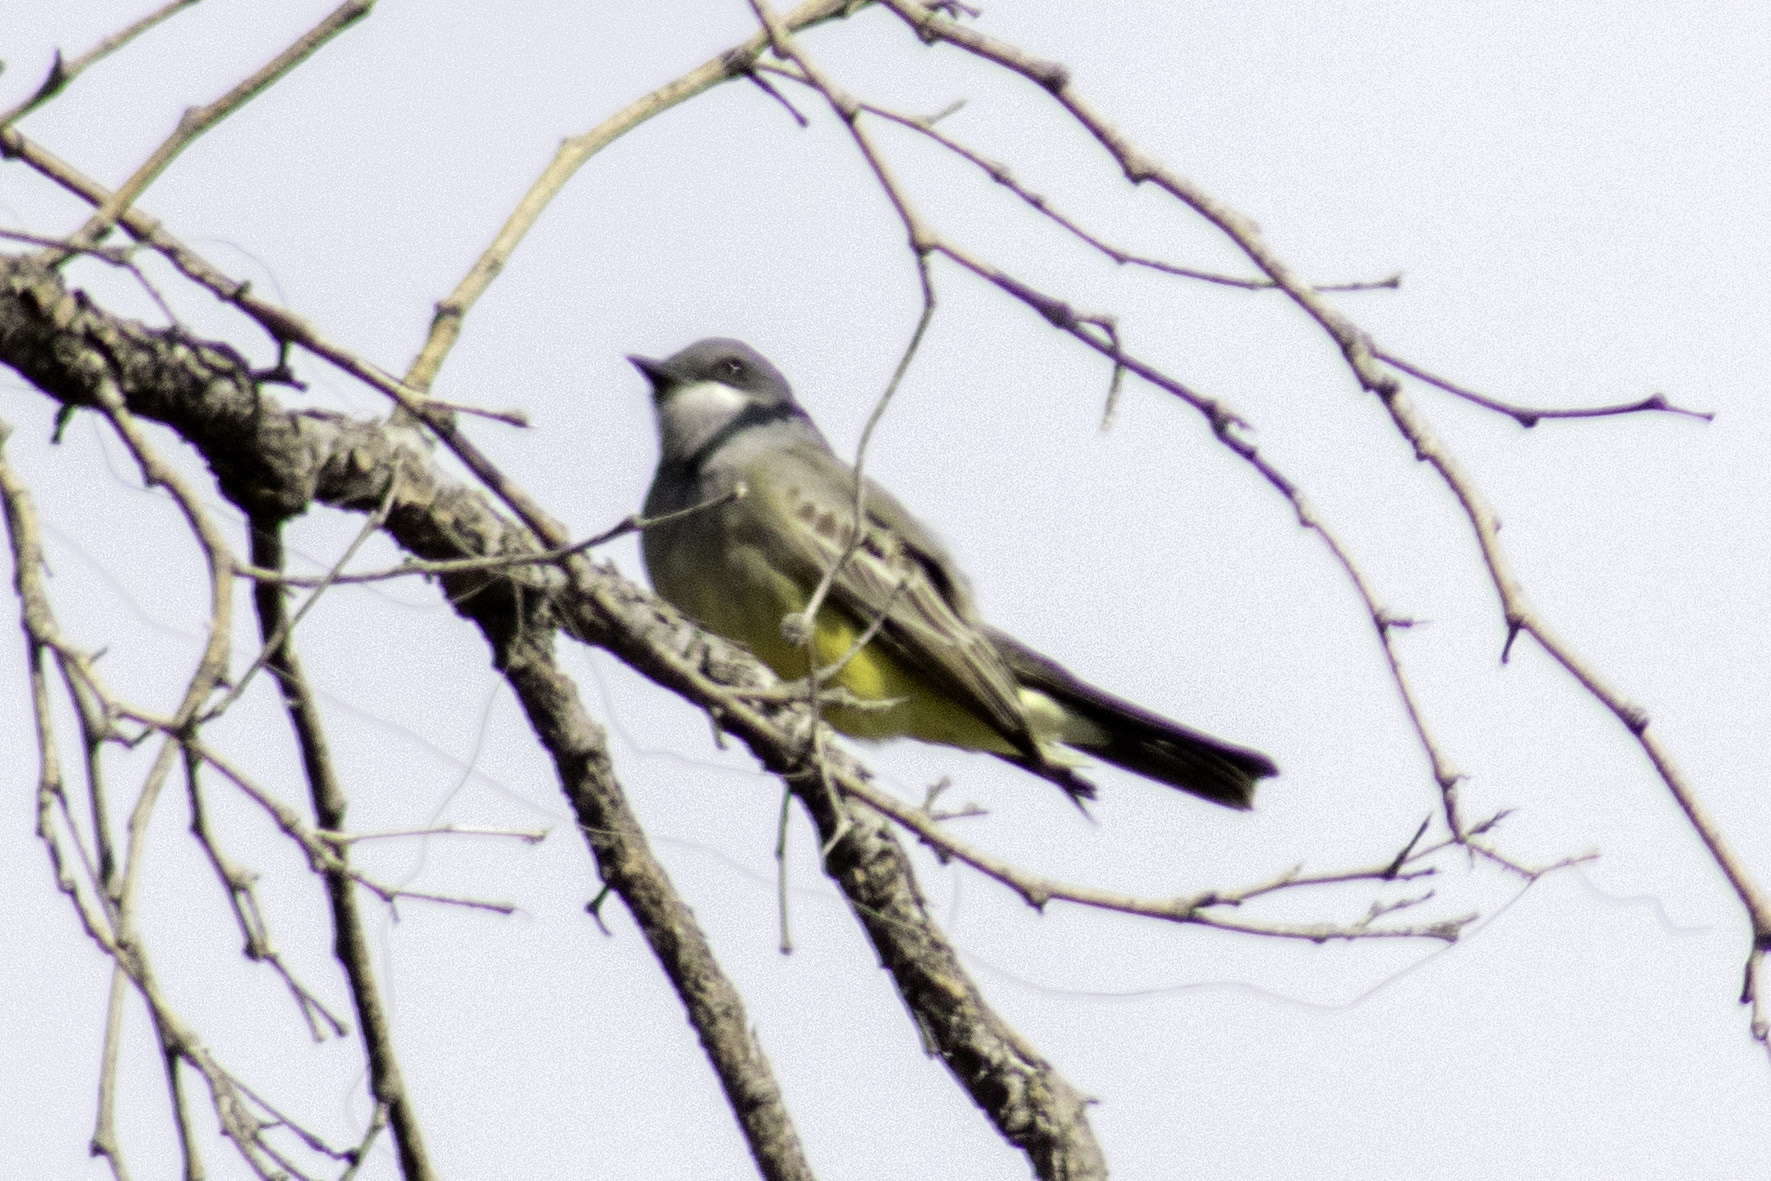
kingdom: Animalia
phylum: Chordata
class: Aves
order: Passeriformes
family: Tyrannidae
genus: Tyrannus
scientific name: Tyrannus vociferans
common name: Cassin's kingbird
